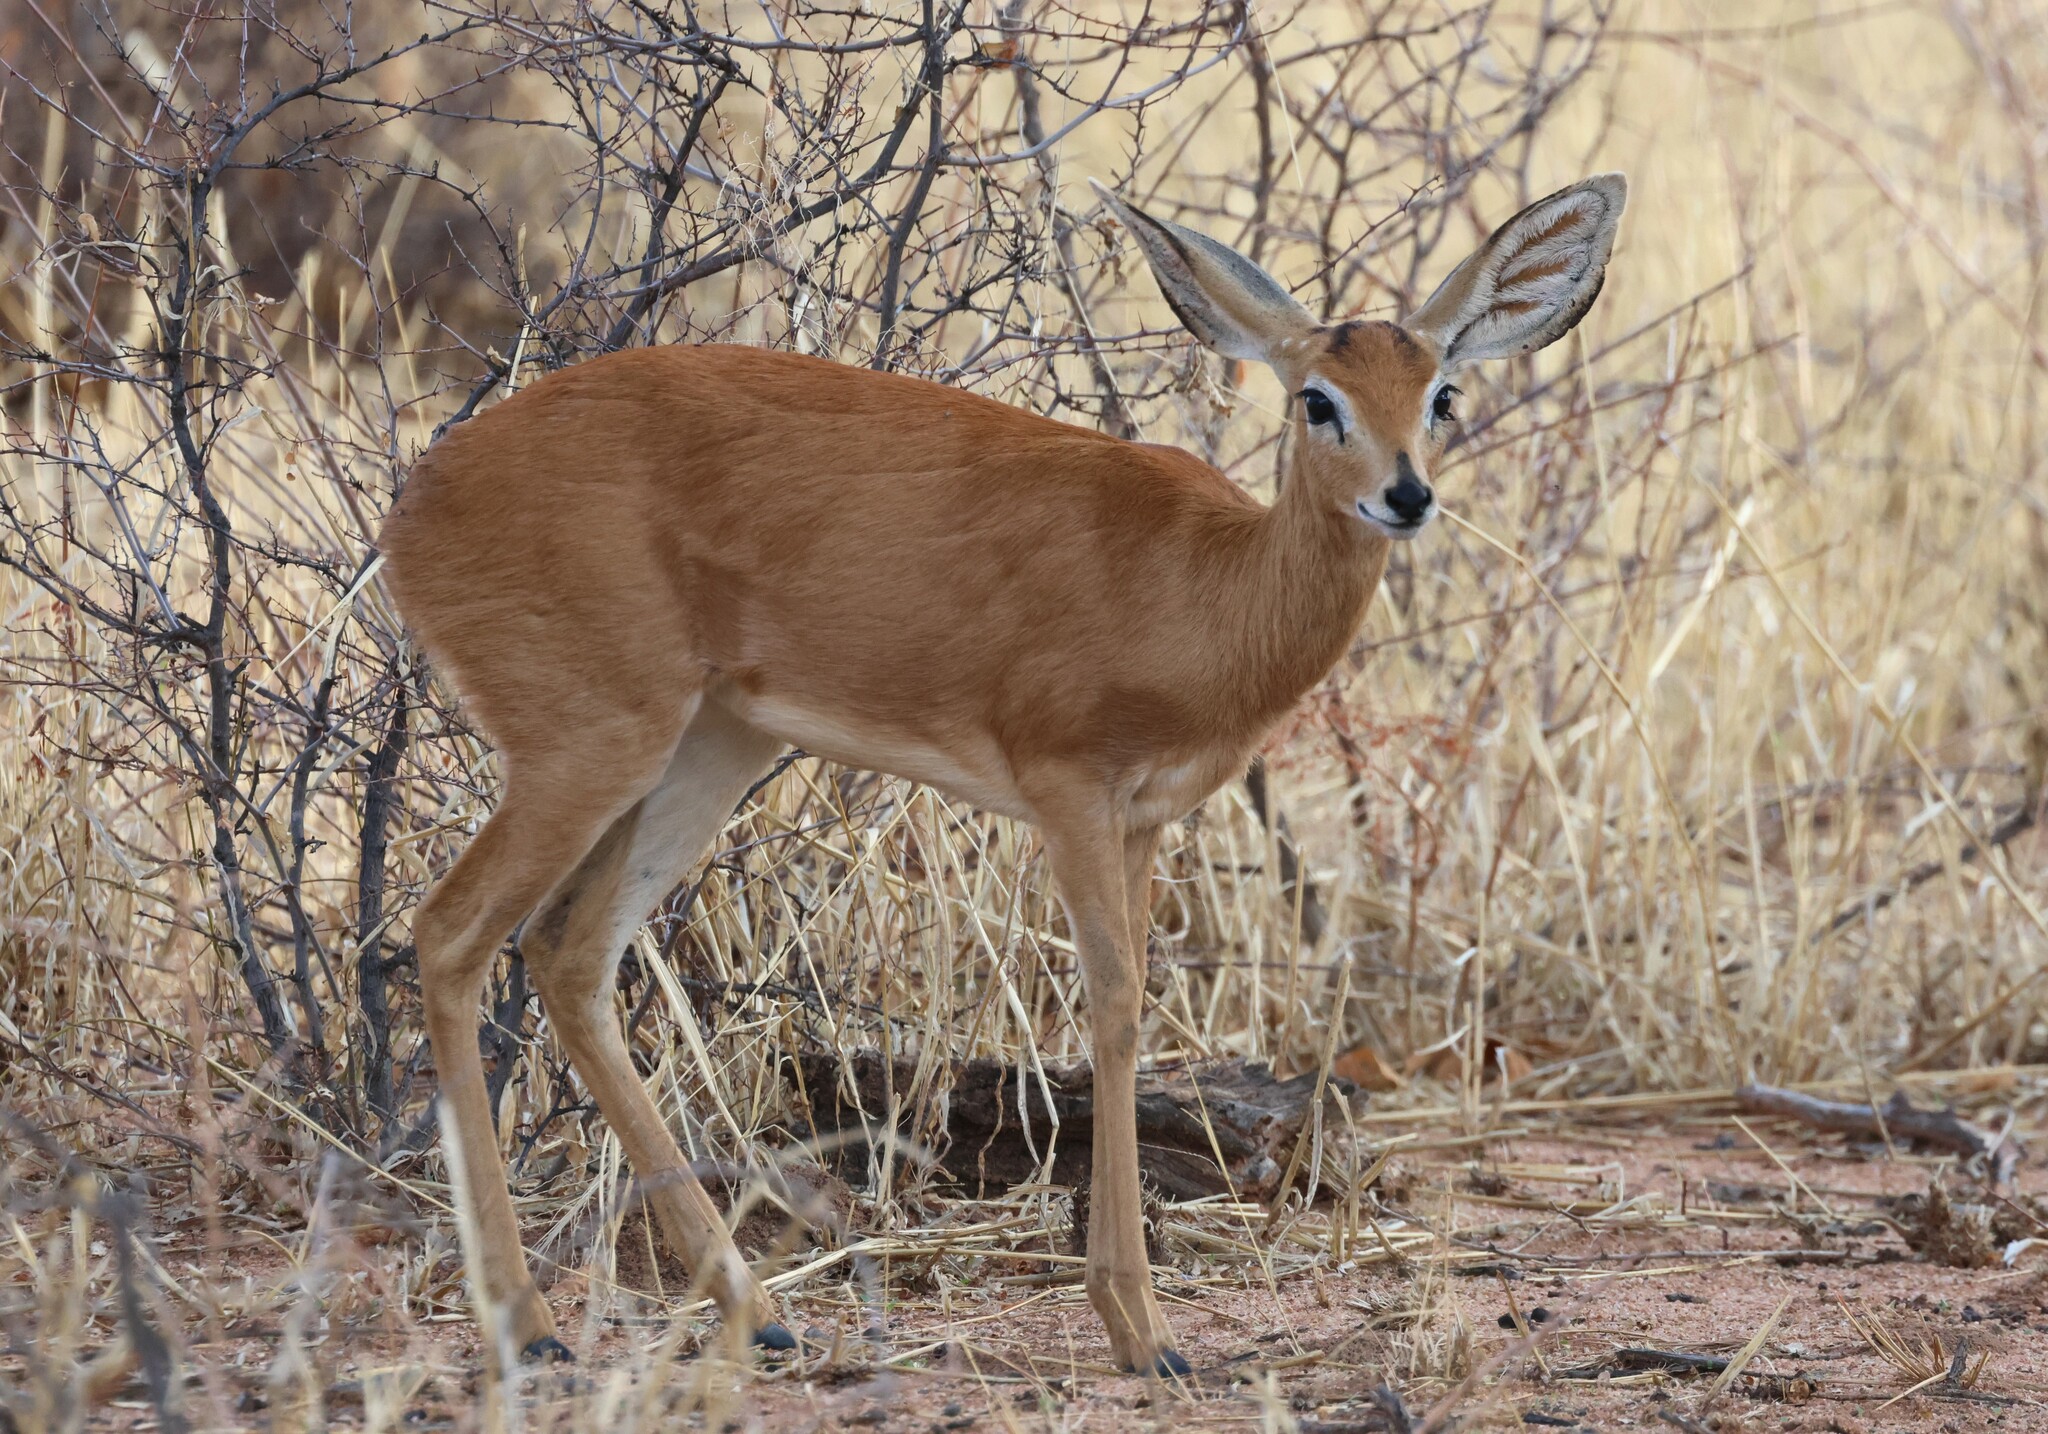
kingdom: Animalia
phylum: Chordata
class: Mammalia
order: Artiodactyla
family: Bovidae
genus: Raphicerus
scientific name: Raphicerus campestris
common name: Steenbok
